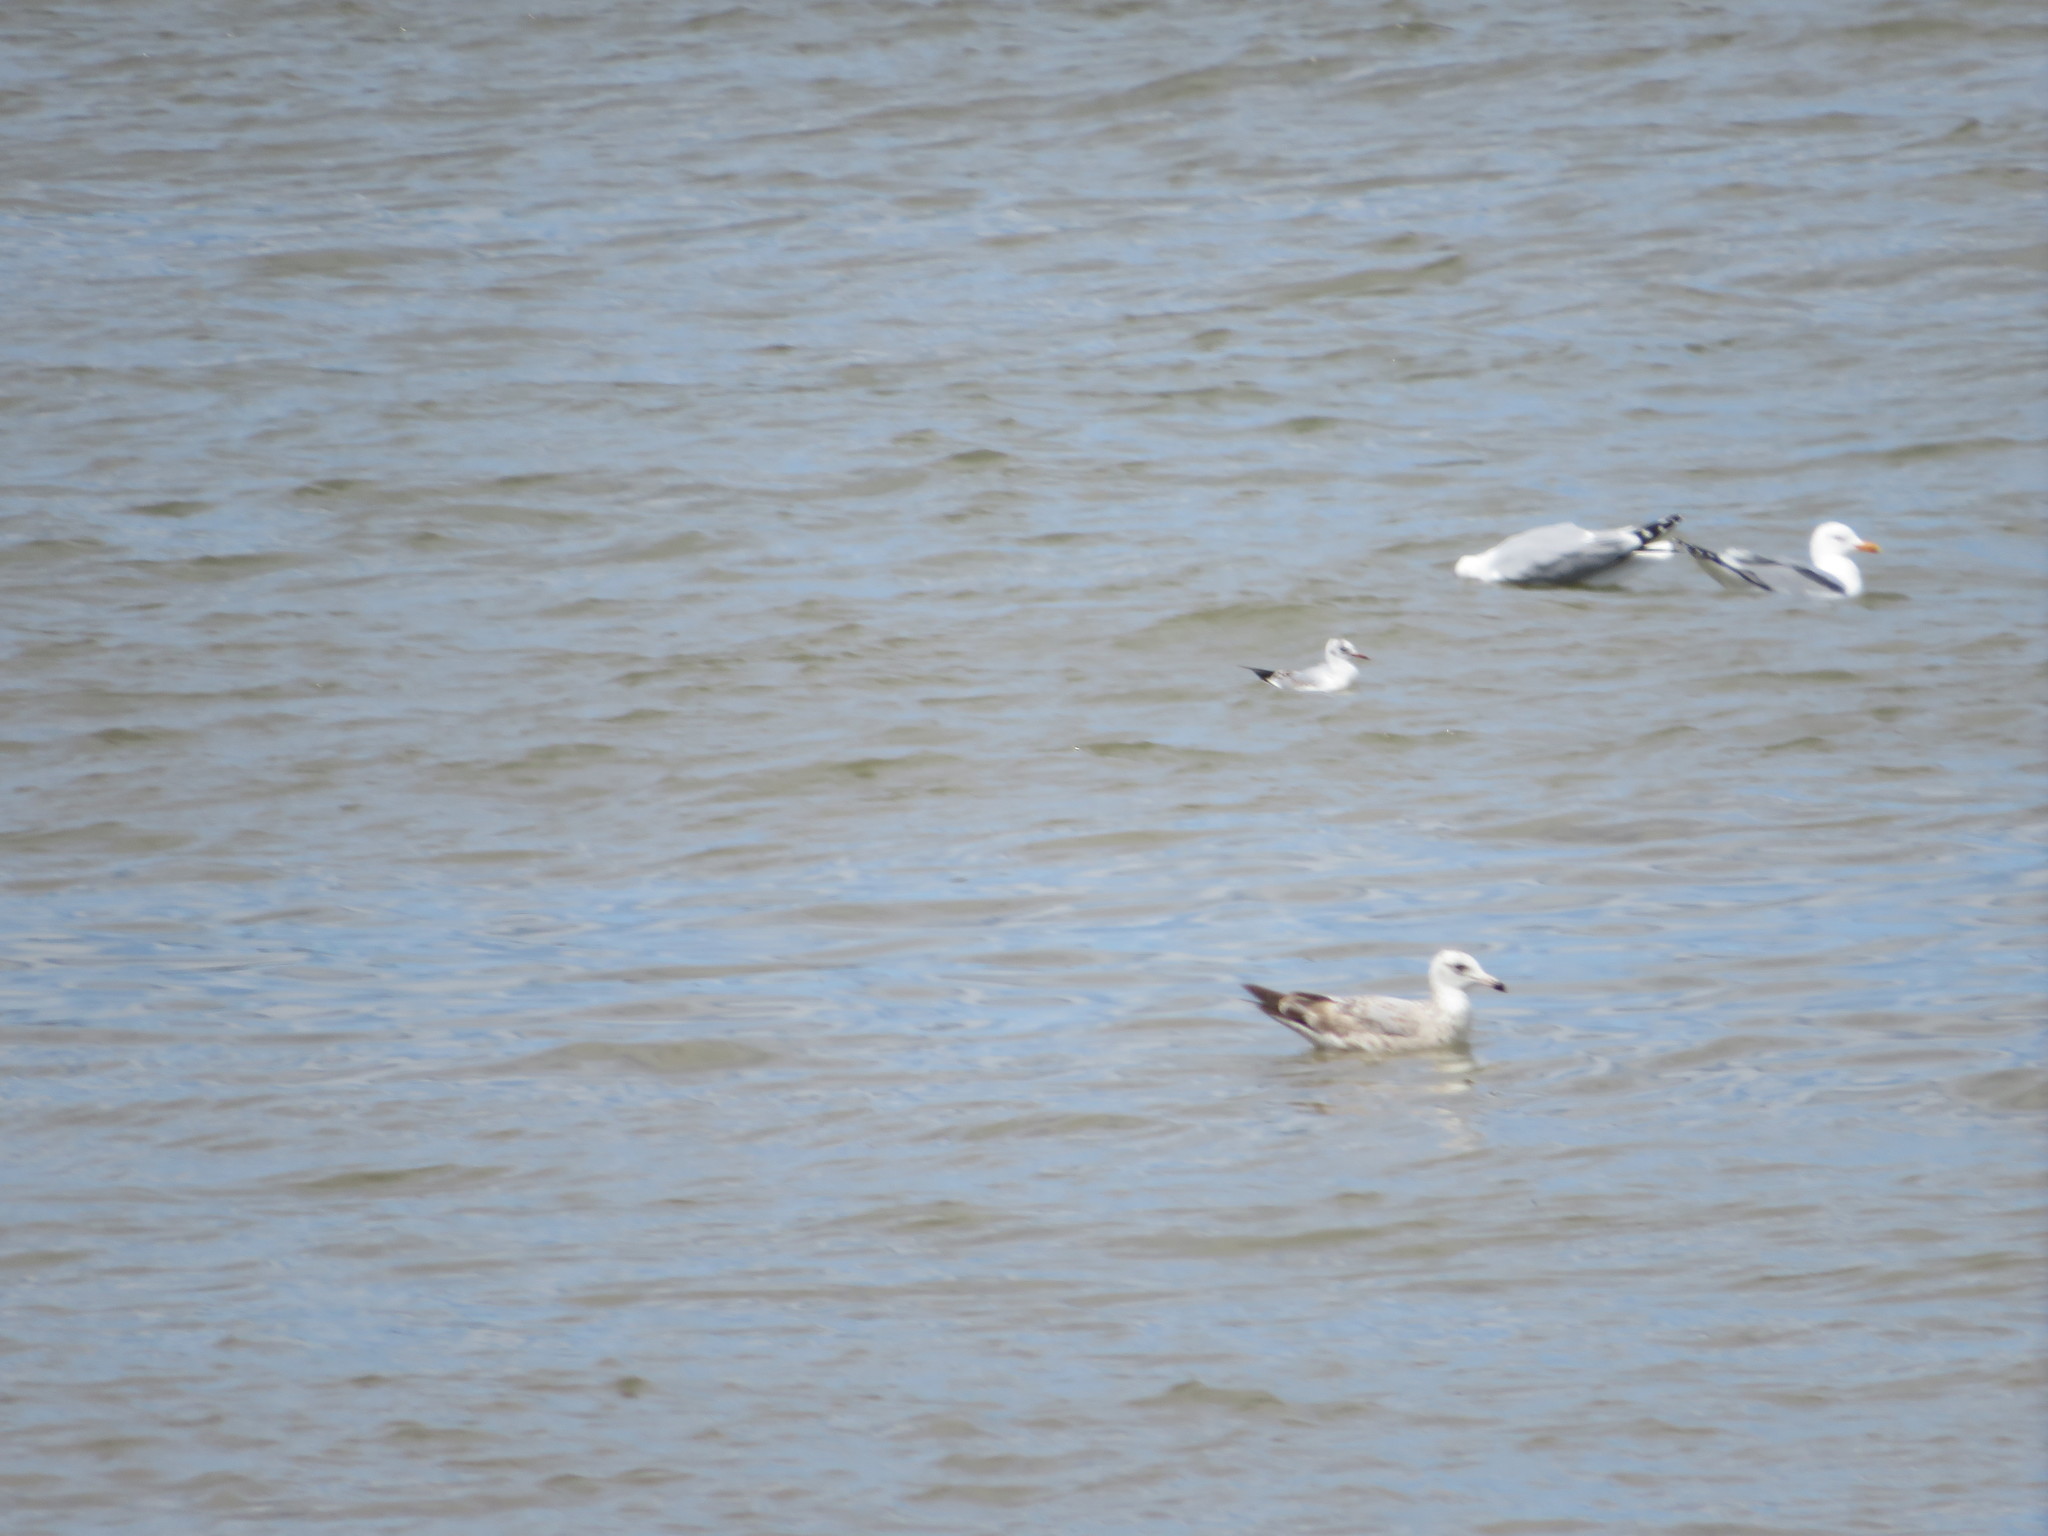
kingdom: Animalia
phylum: Chordata
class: Aves
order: Charadriiformes
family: Laridae
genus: Chroicocephalus
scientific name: Chroicocephalus philadelphia
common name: Bonaparte's gull
